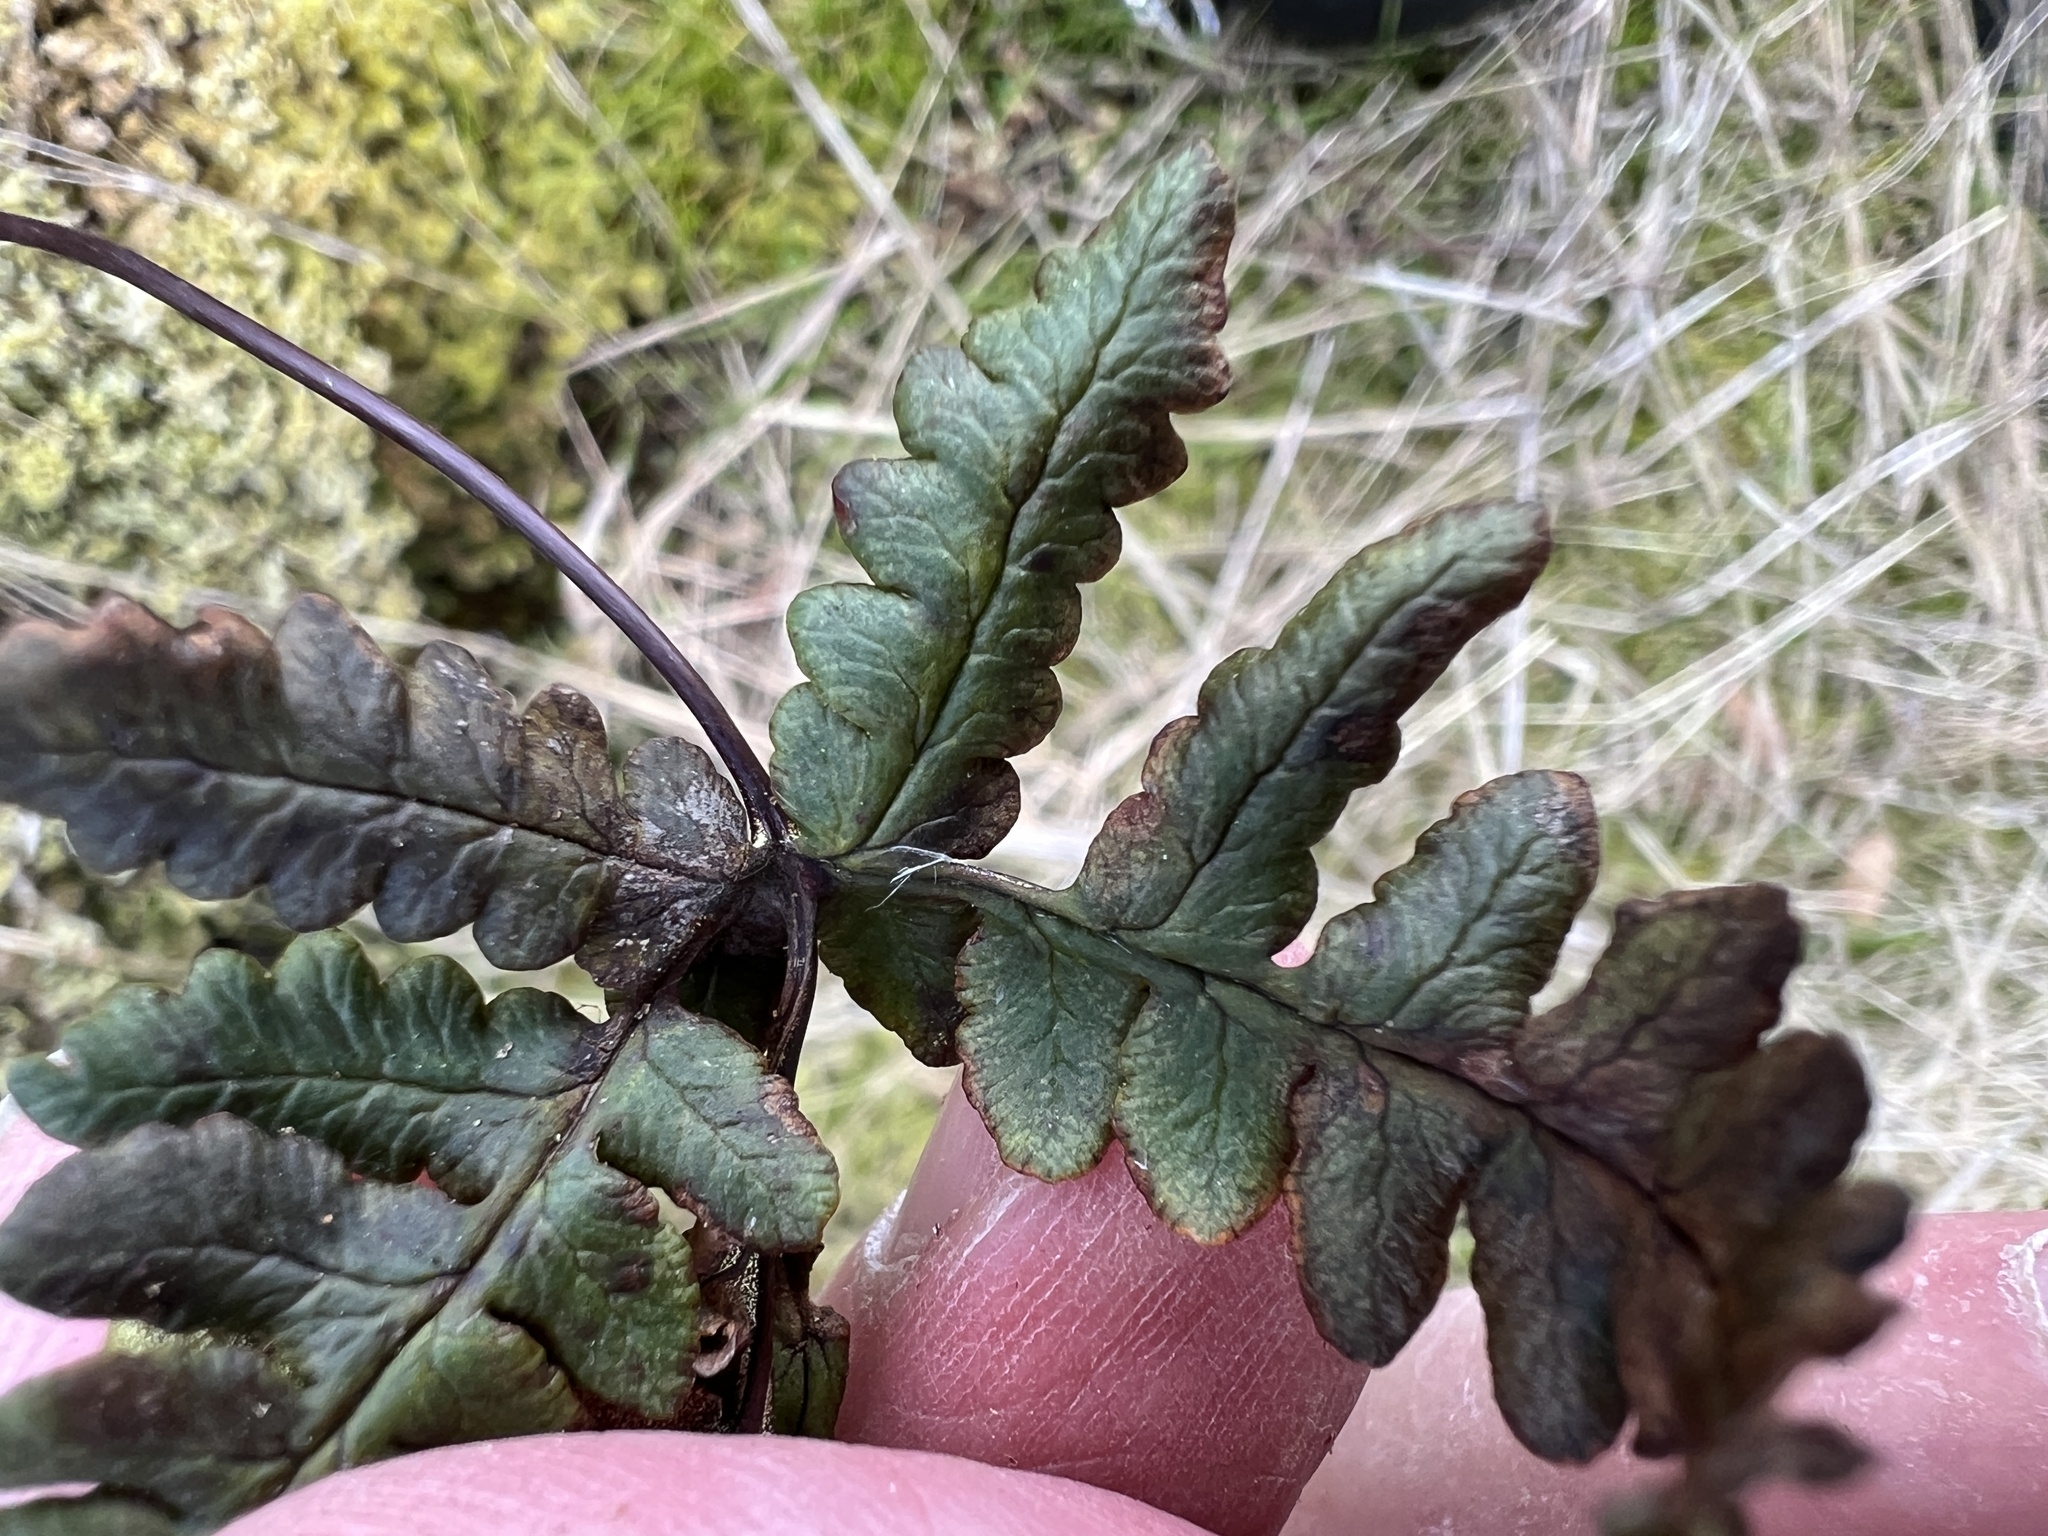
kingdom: Plantae
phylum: Tracheophyta
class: Polypodiopsida
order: Polypodiales
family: Pteridaceae
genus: Pentagramma
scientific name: Pentagramma triangularis
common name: Gold fern
